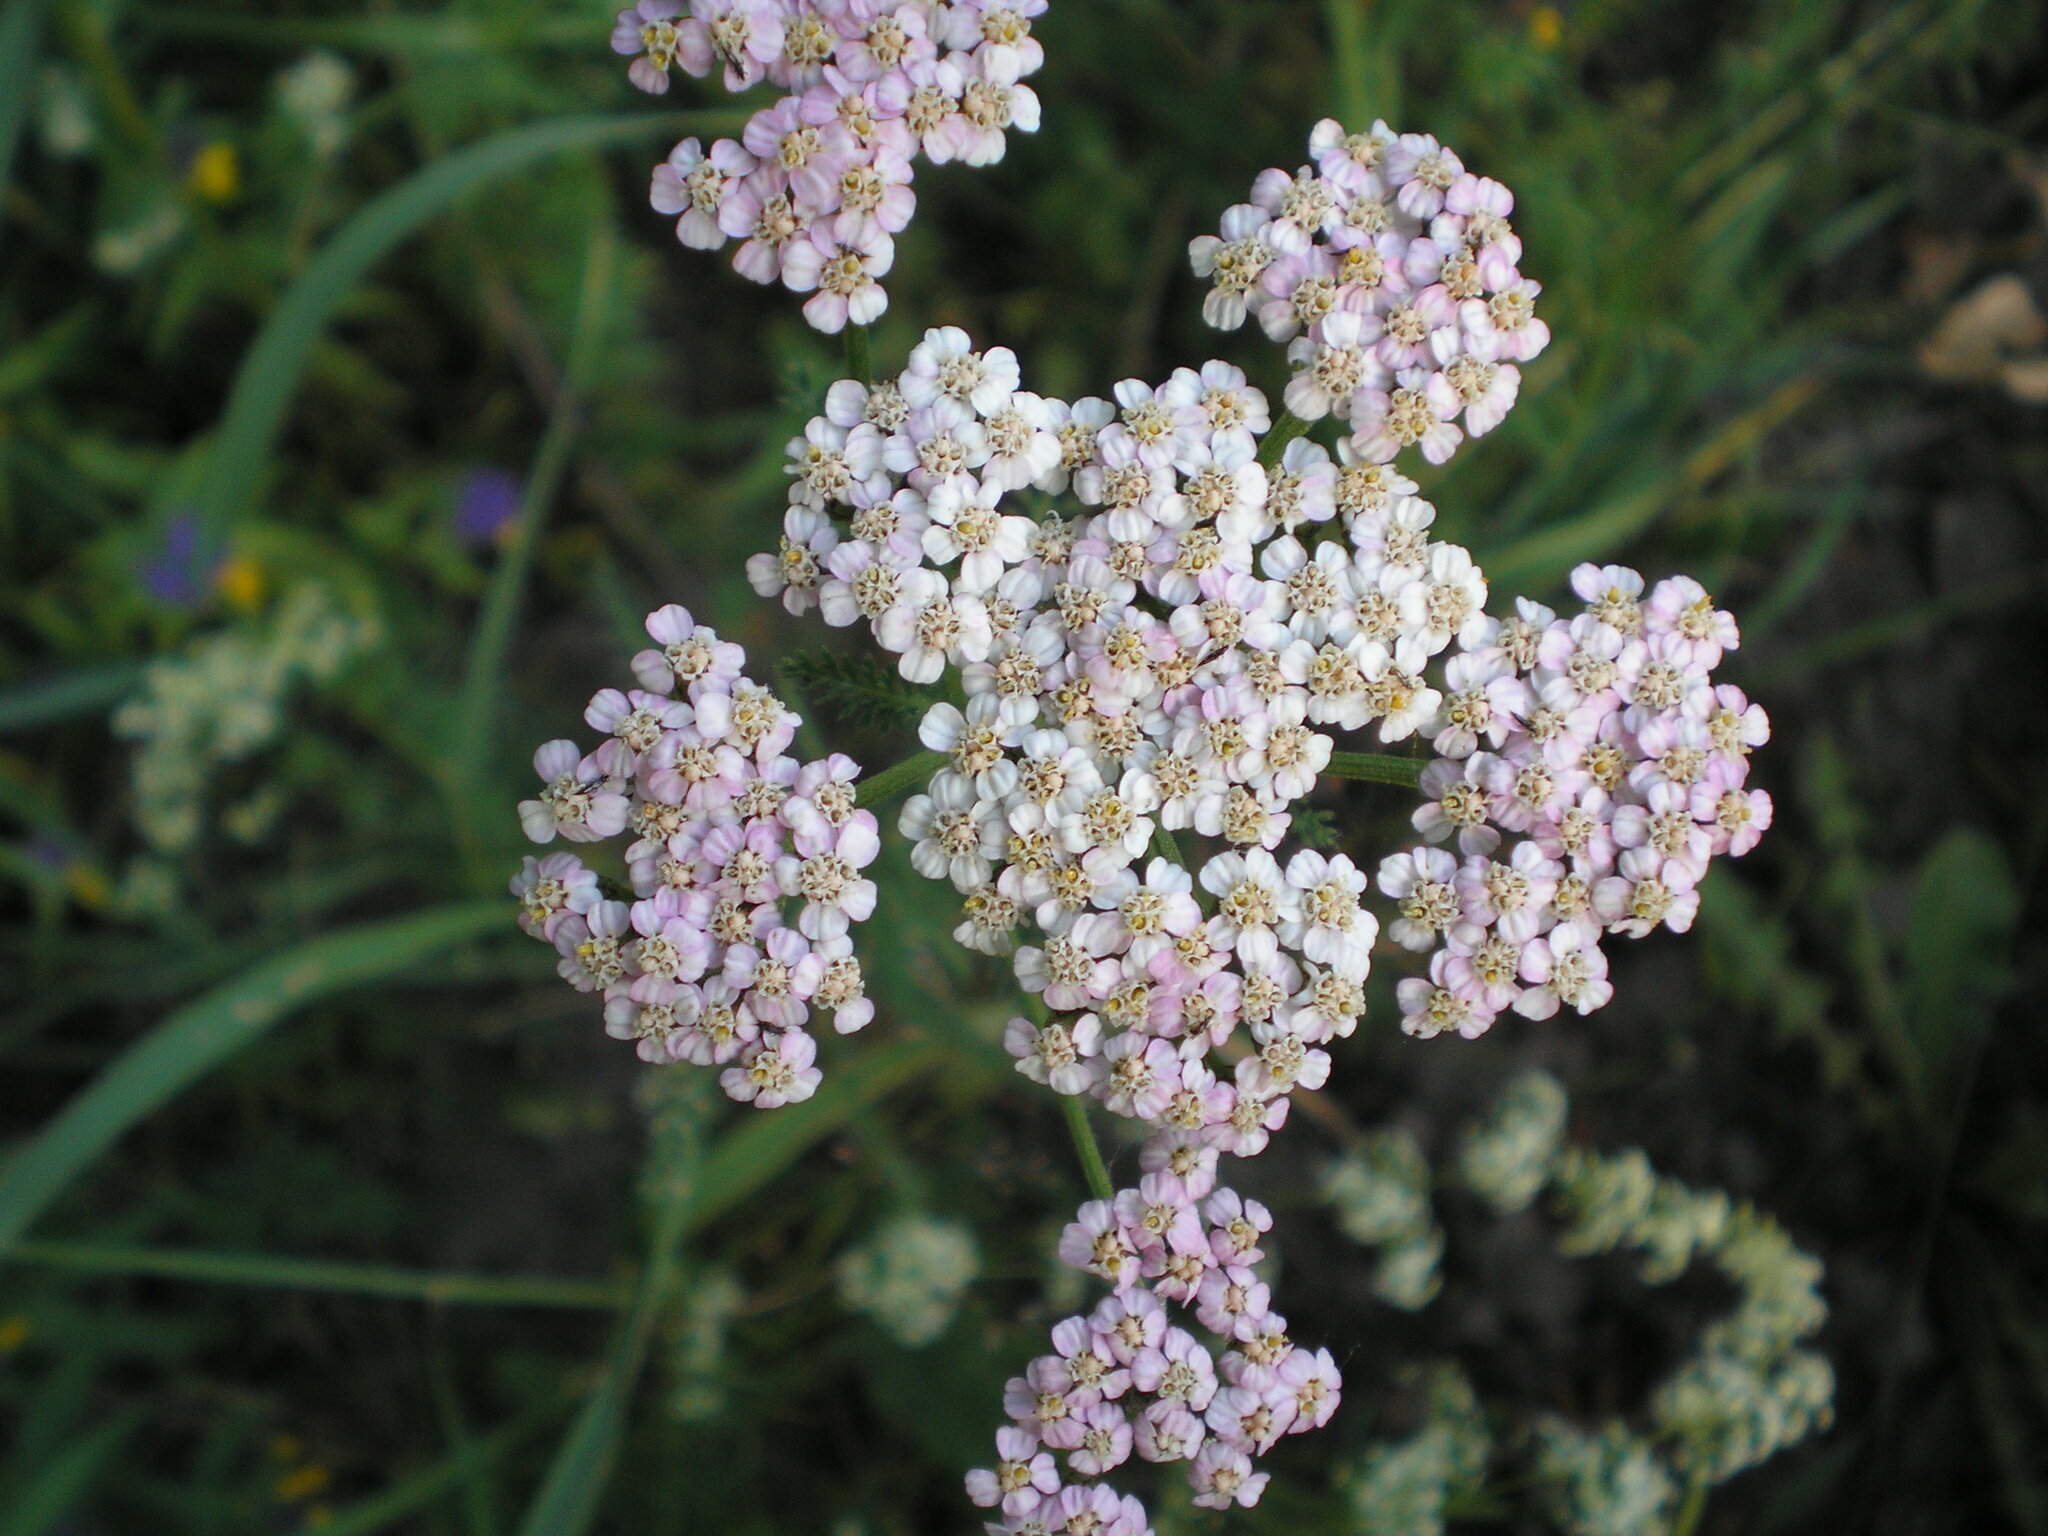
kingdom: Plantae
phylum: Tracheophyta
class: Magnoliopsida
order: Asterales
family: Asteraceae
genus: Achillea
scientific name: Achillea millefolium
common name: Yarrow
